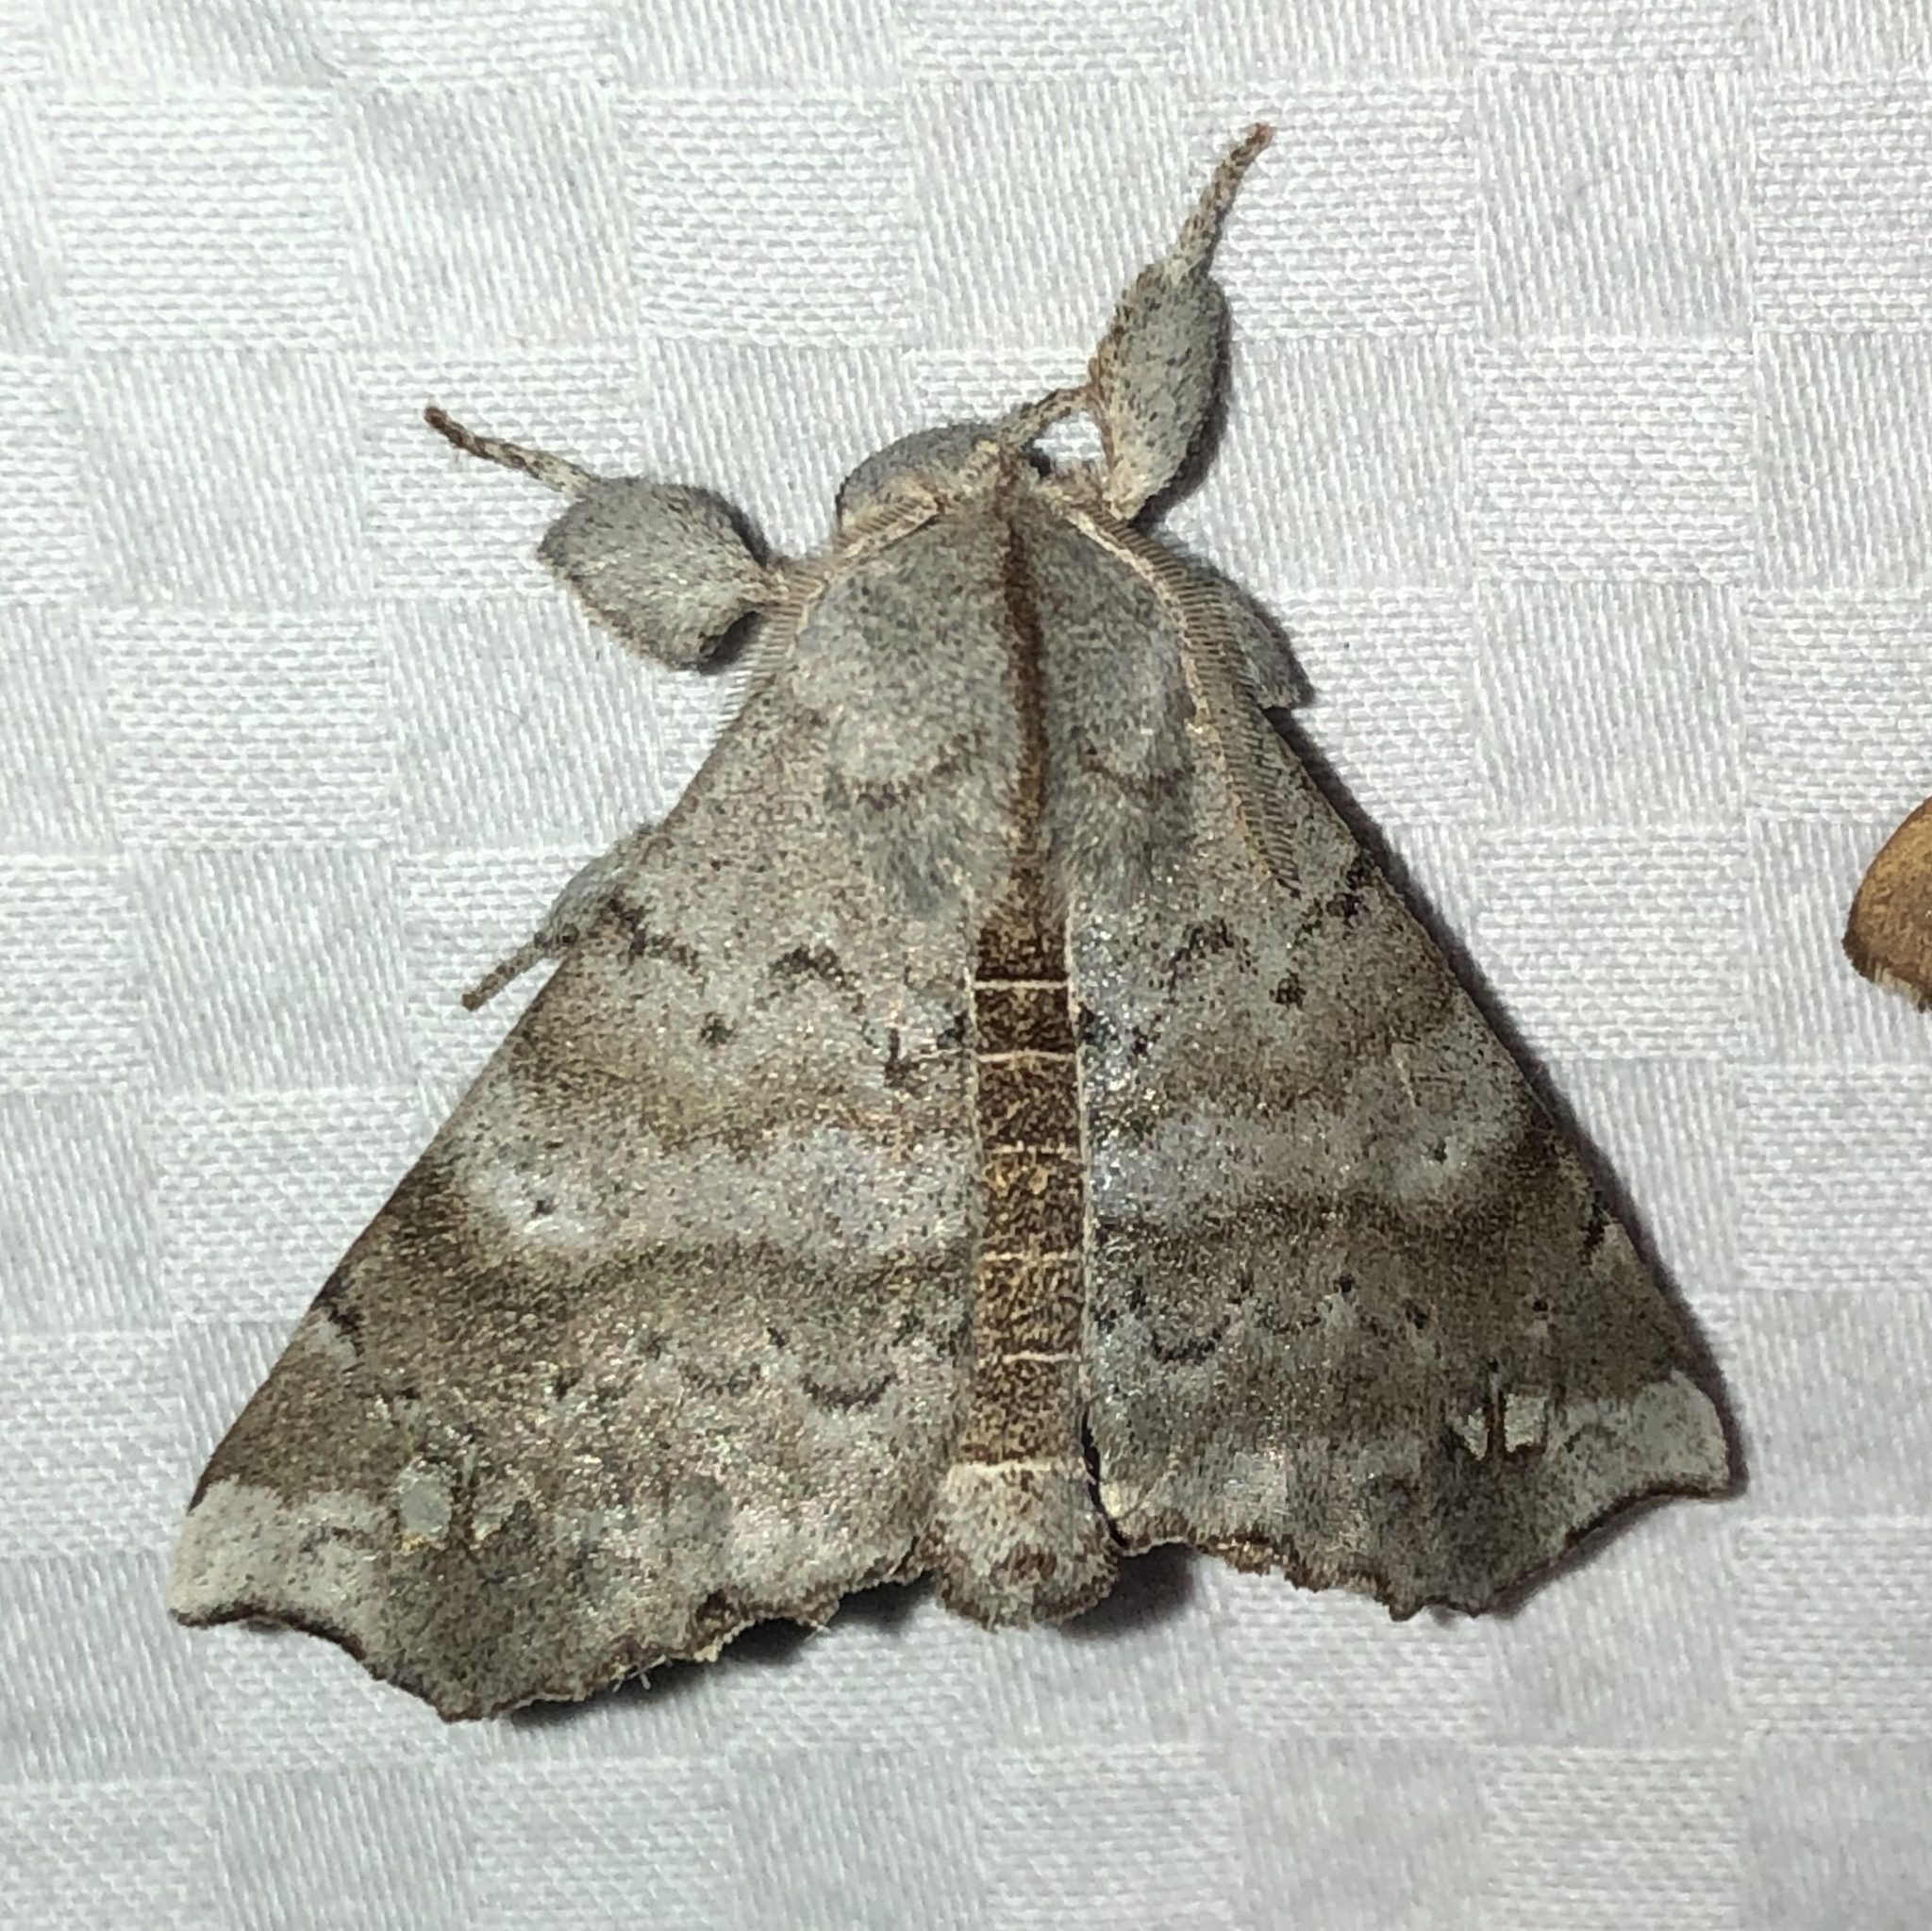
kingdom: Animalia
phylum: Arthropoda
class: Insecta
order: Lepidoptera
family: Apatelodidae
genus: Olceclostera
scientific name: Olceclostera angelica
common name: Angel moth
